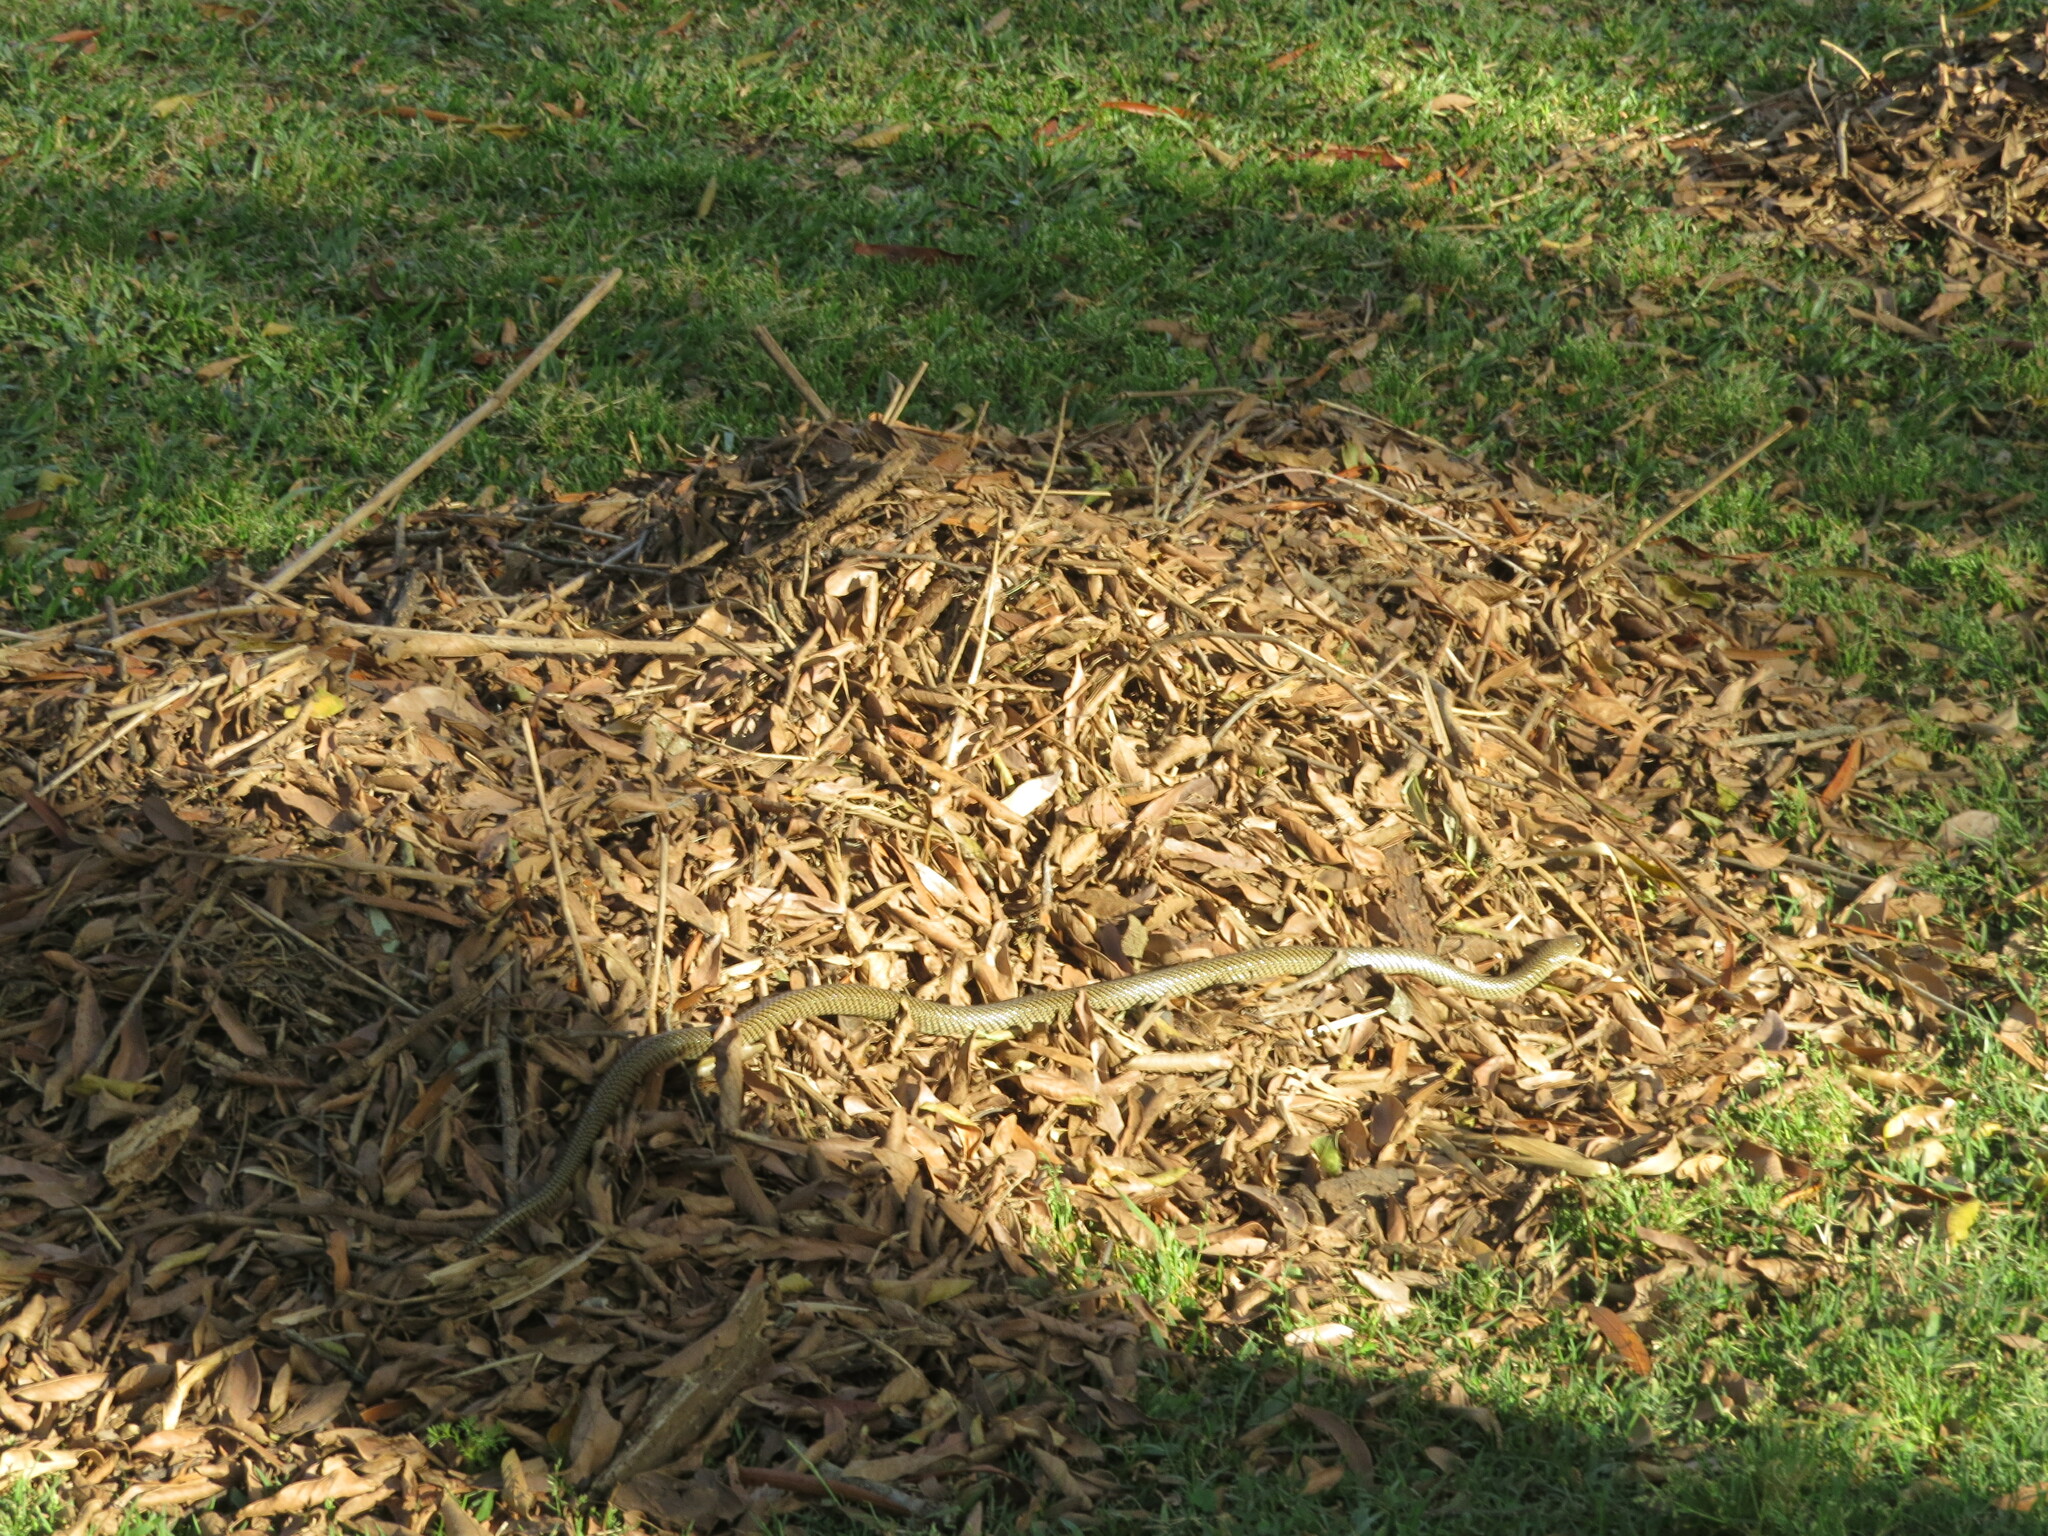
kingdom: Animalia
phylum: Chordata
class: Squamata
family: Colubridae
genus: Erythrolamprus
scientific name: Erythrolamprus semiaureus
